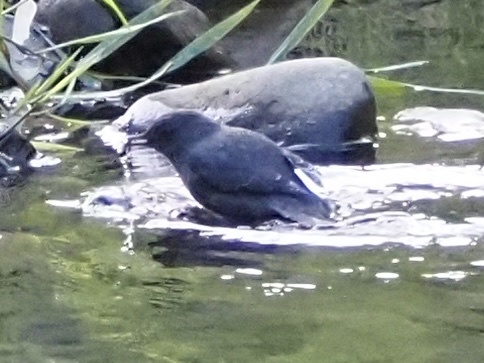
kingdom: Animalia
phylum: Chordata
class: Aves
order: Passeriformes
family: Cinclidae
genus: Cinclus
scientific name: Cinclus mexicanus
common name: American dipper
